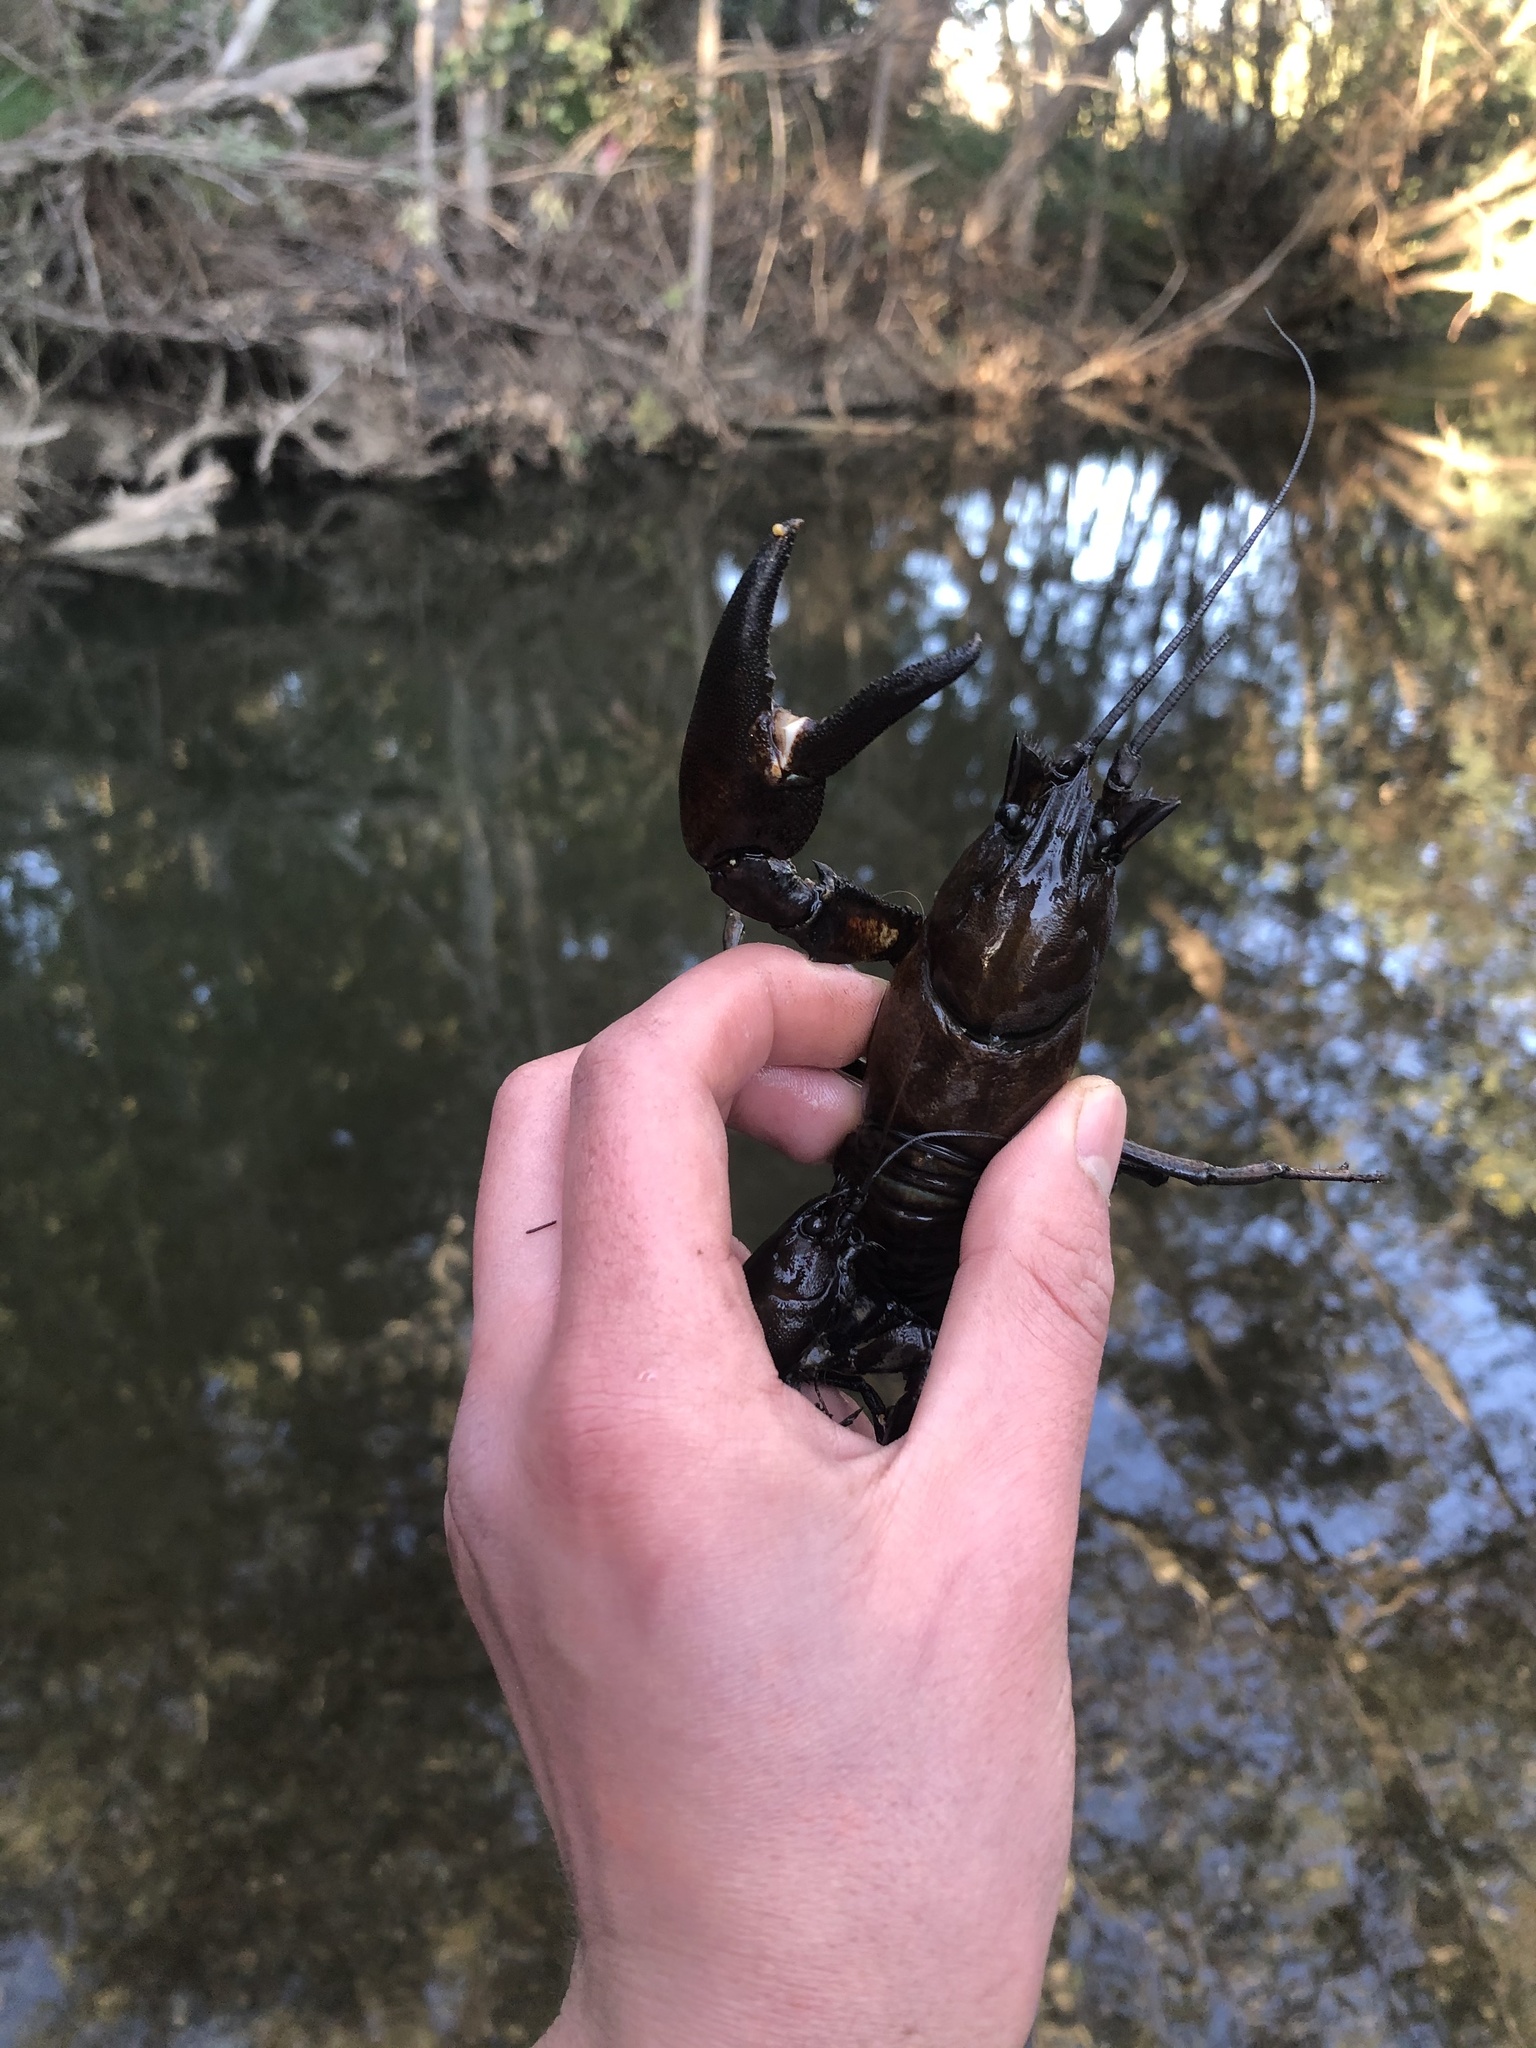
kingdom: Animalia
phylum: Arthropoda
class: Malacostraca
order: Decapoda
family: Astacidae
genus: Pacifastacus
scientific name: Pacifastacus leniusculus
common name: Signal crayfish
